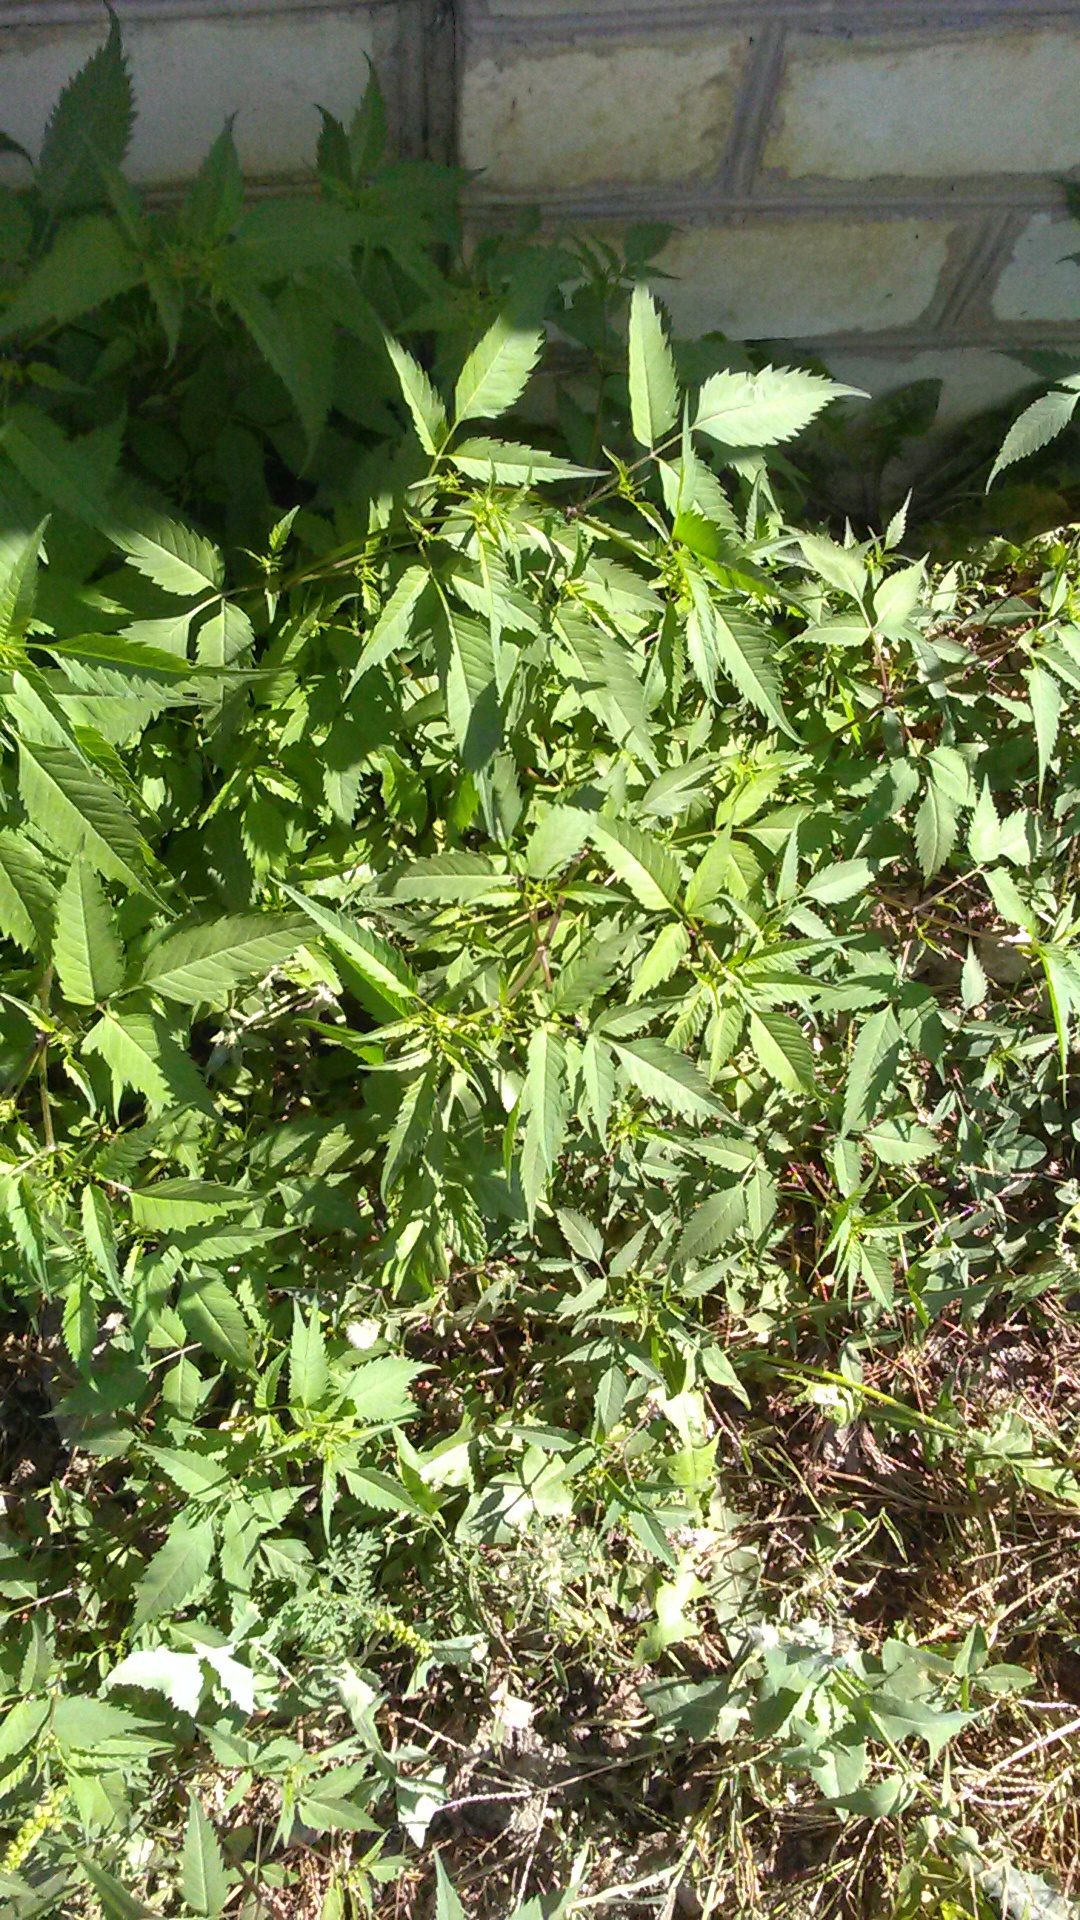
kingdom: Plantae
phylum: Tracheophyta
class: Magnoliopsida
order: Asterales
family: Asteraceae
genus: Bidens
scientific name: Bidens frondosa
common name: Beggarticks
